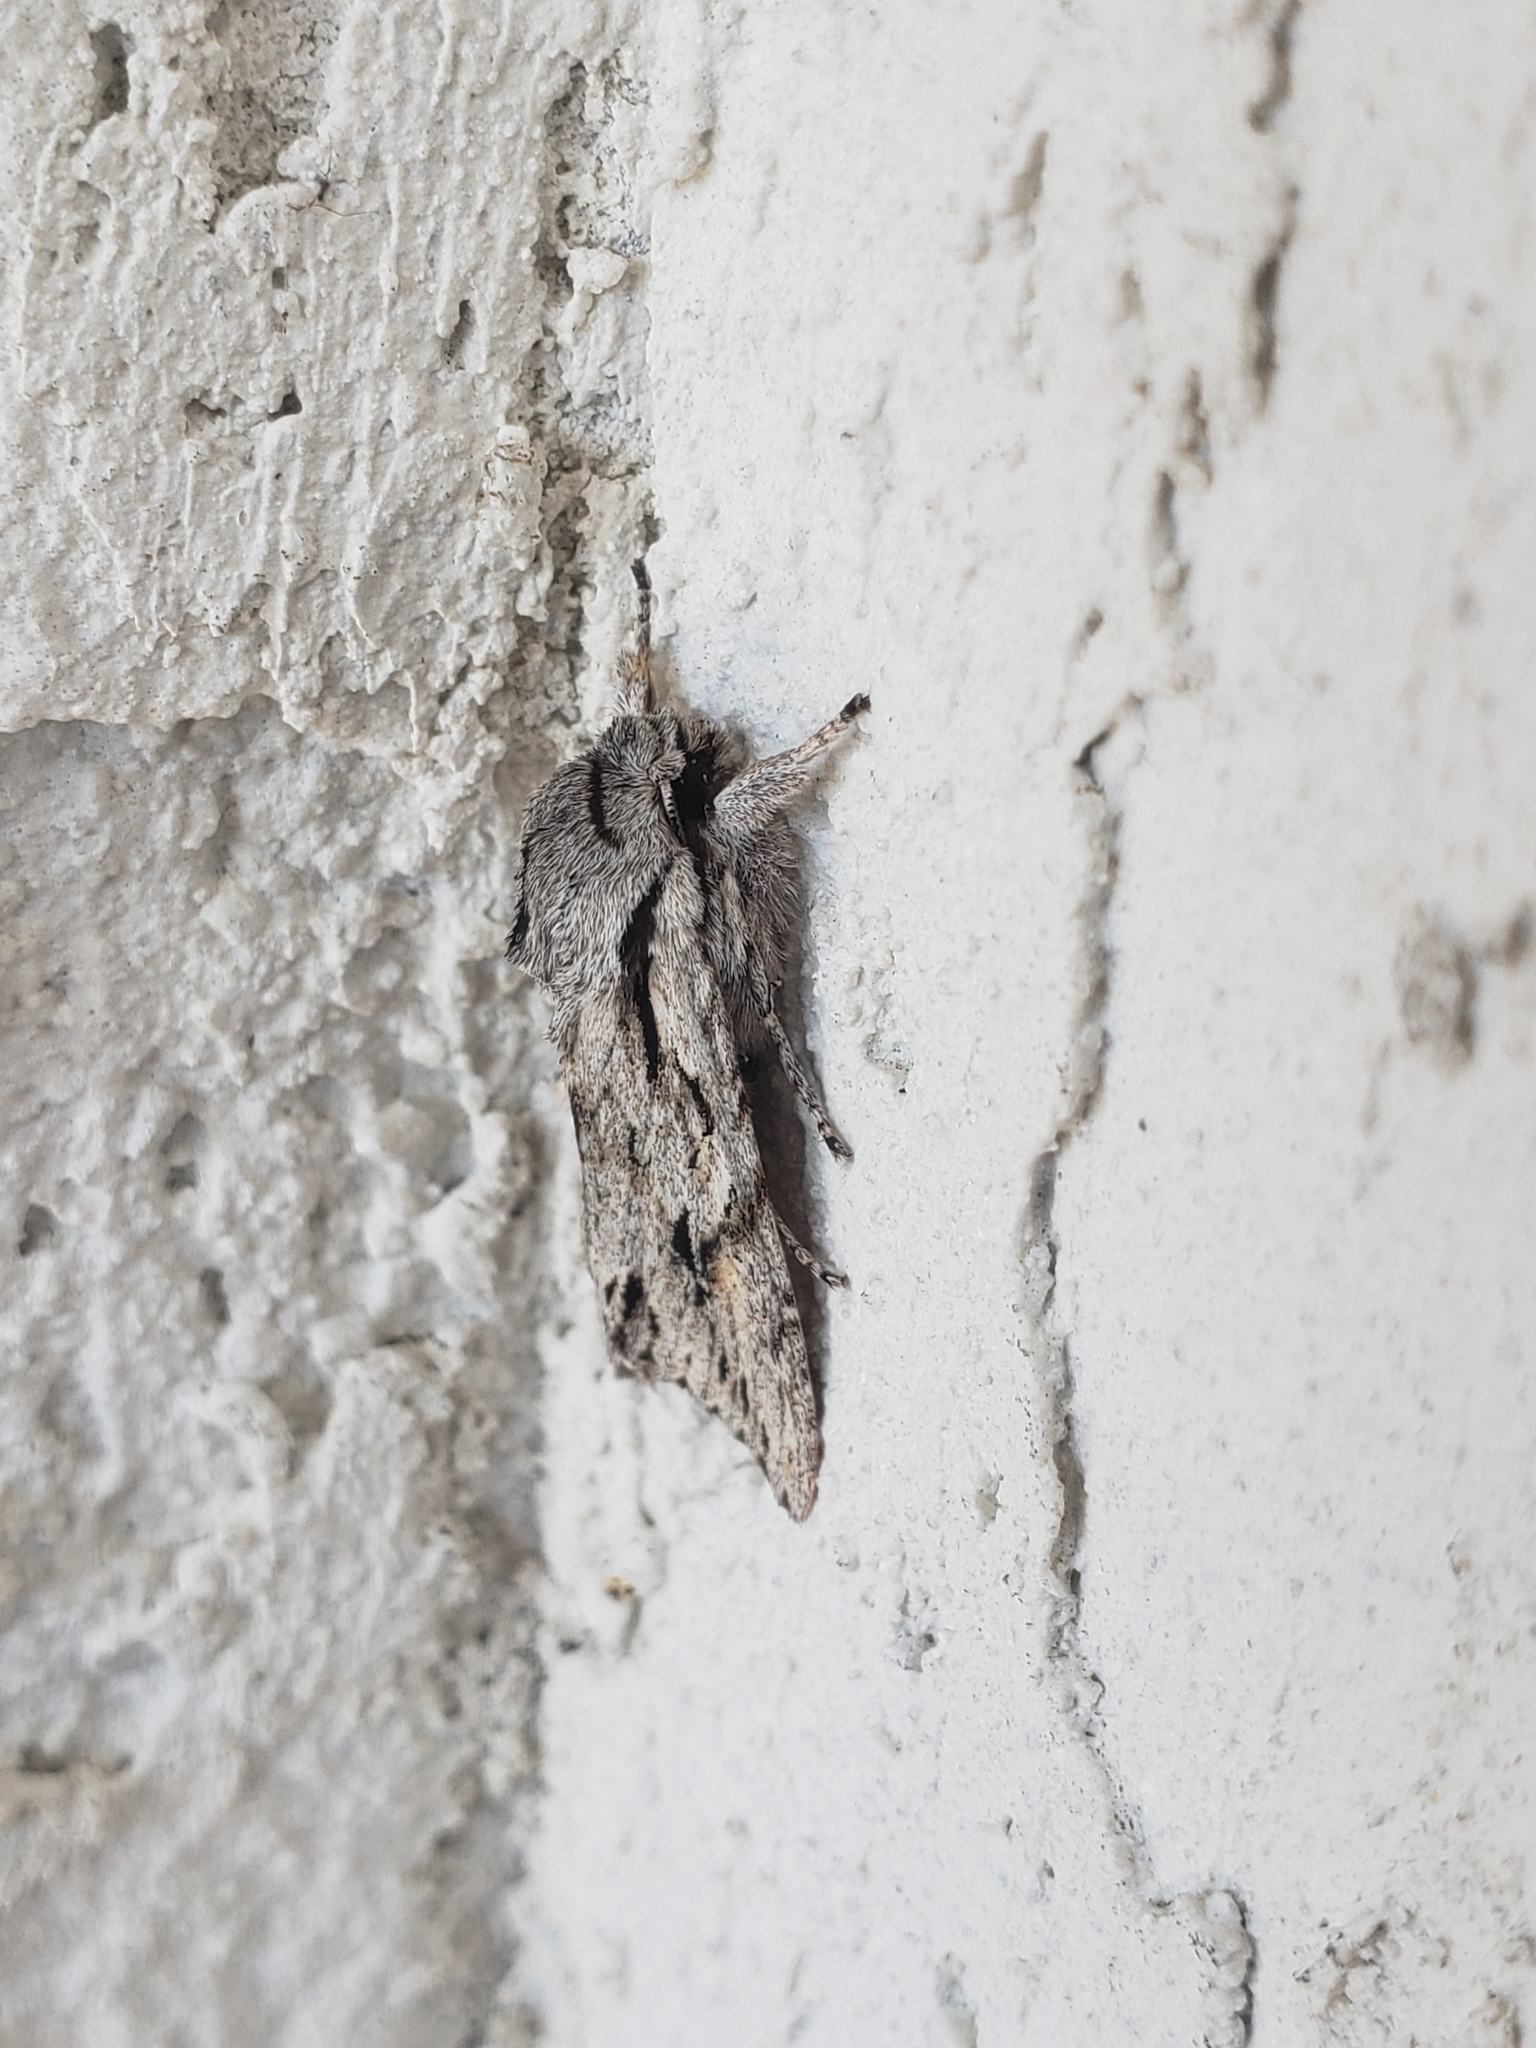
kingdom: Animalia
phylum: Arthropoda
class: Insecta
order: Lepidoptera
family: Noctuidae
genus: Egira
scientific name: Egira crucialis
